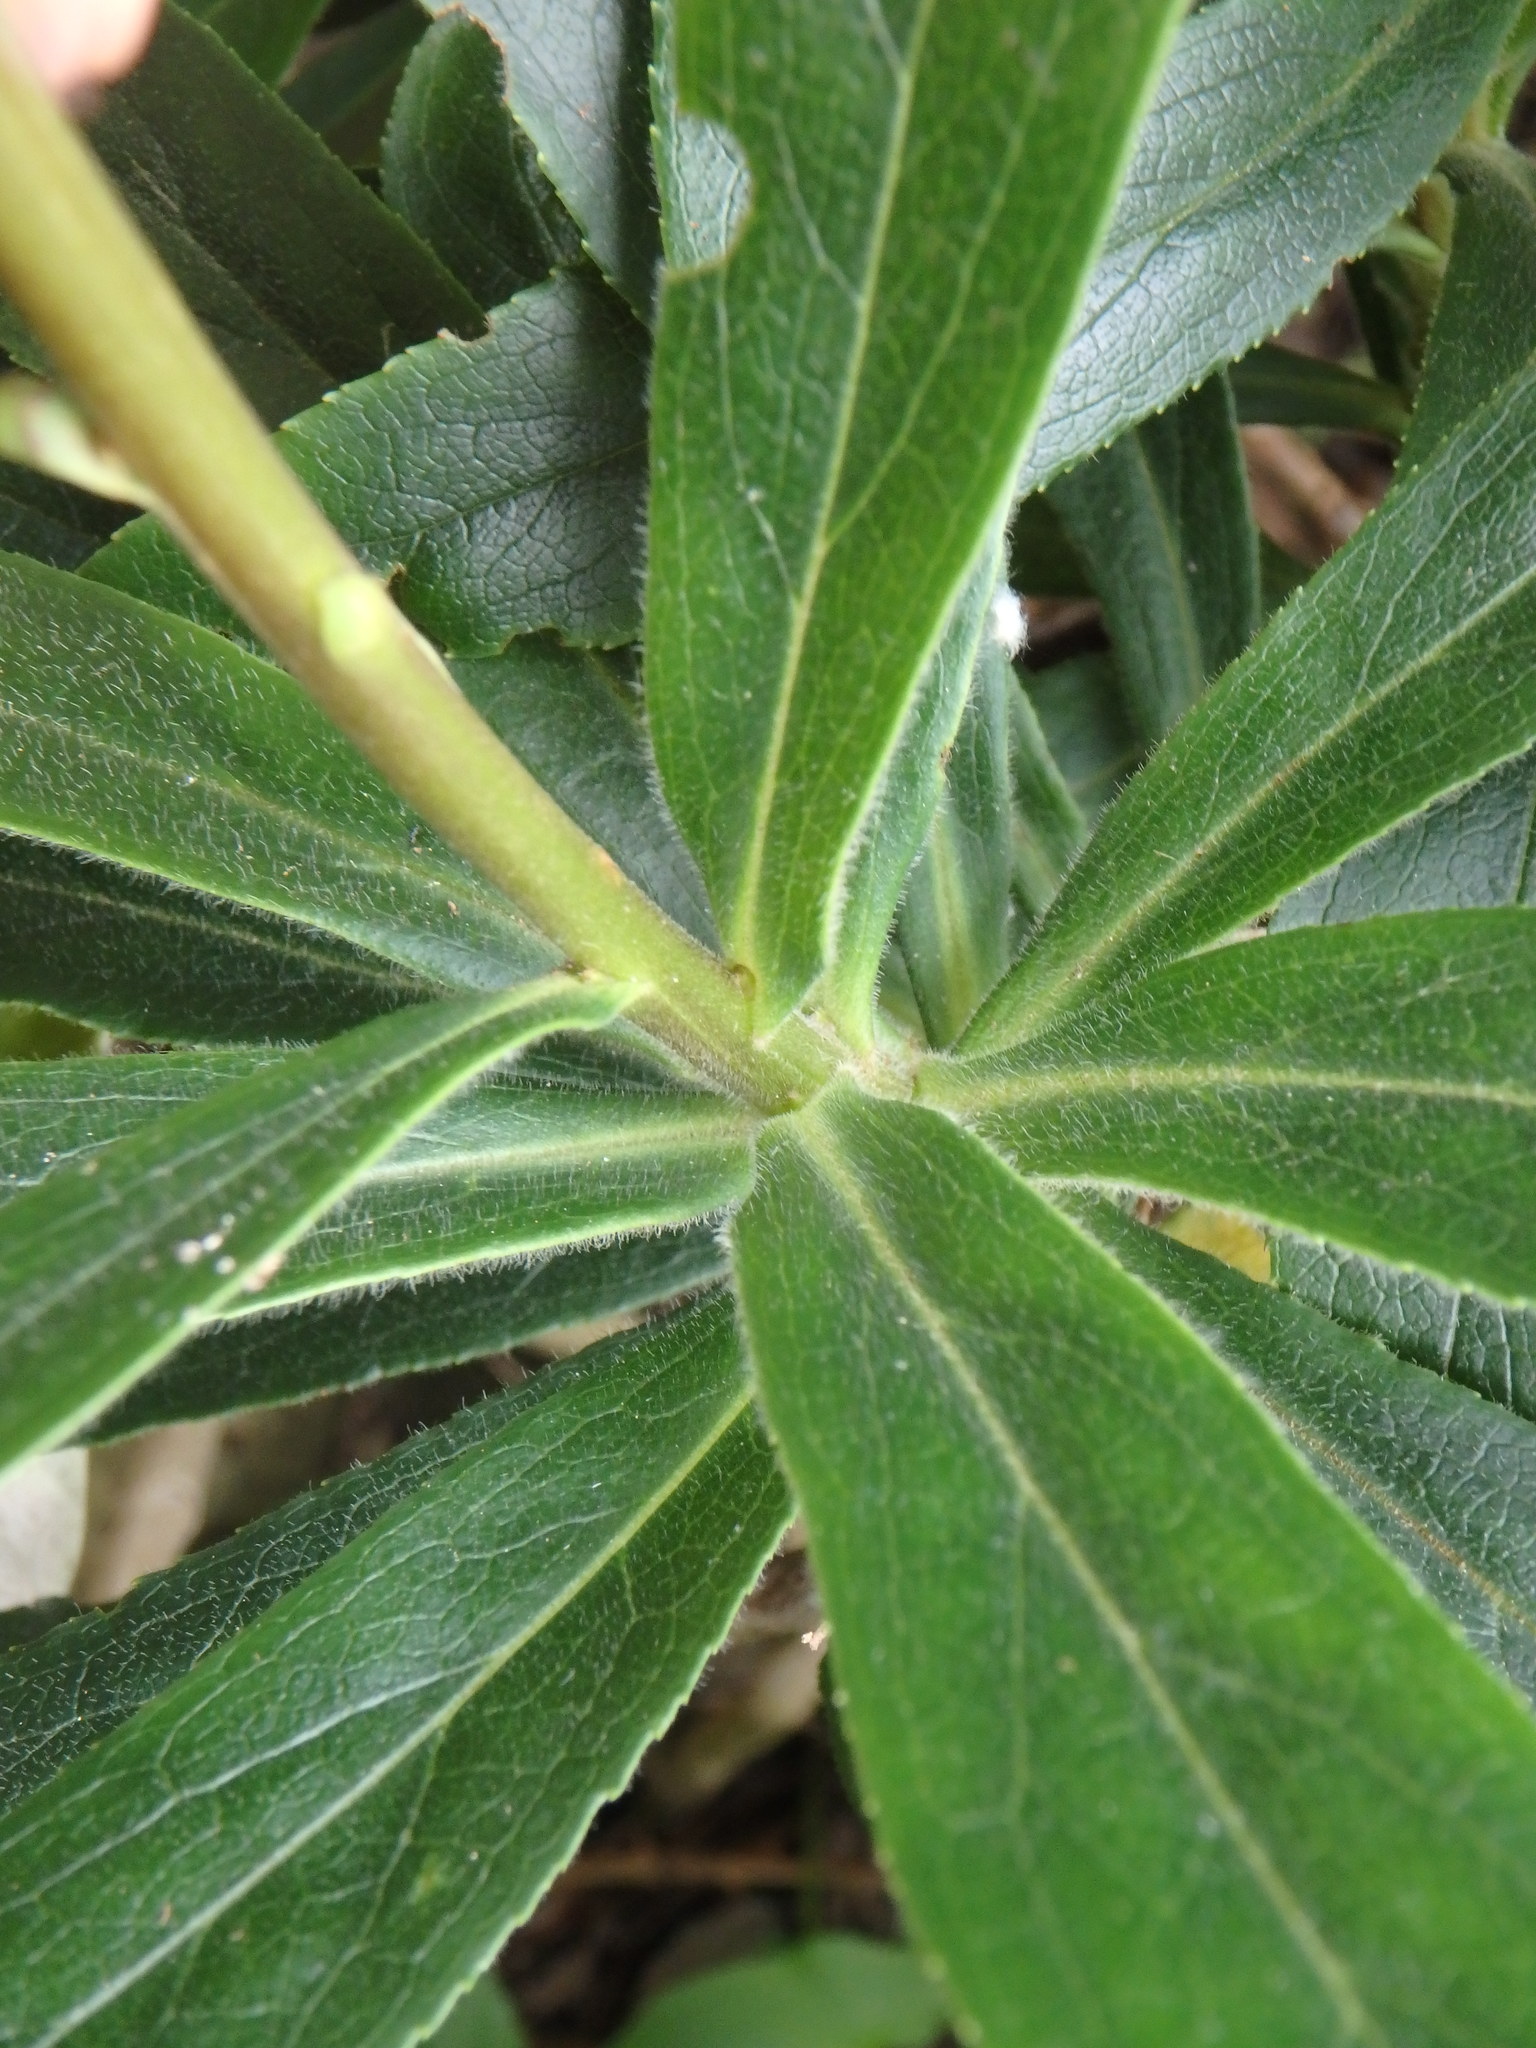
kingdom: Plantae
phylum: Tracheophyta
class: Magnoliopsida
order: Lamiales
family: Plantaginaceae
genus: Digitalis
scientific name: Digitalis canariensis
